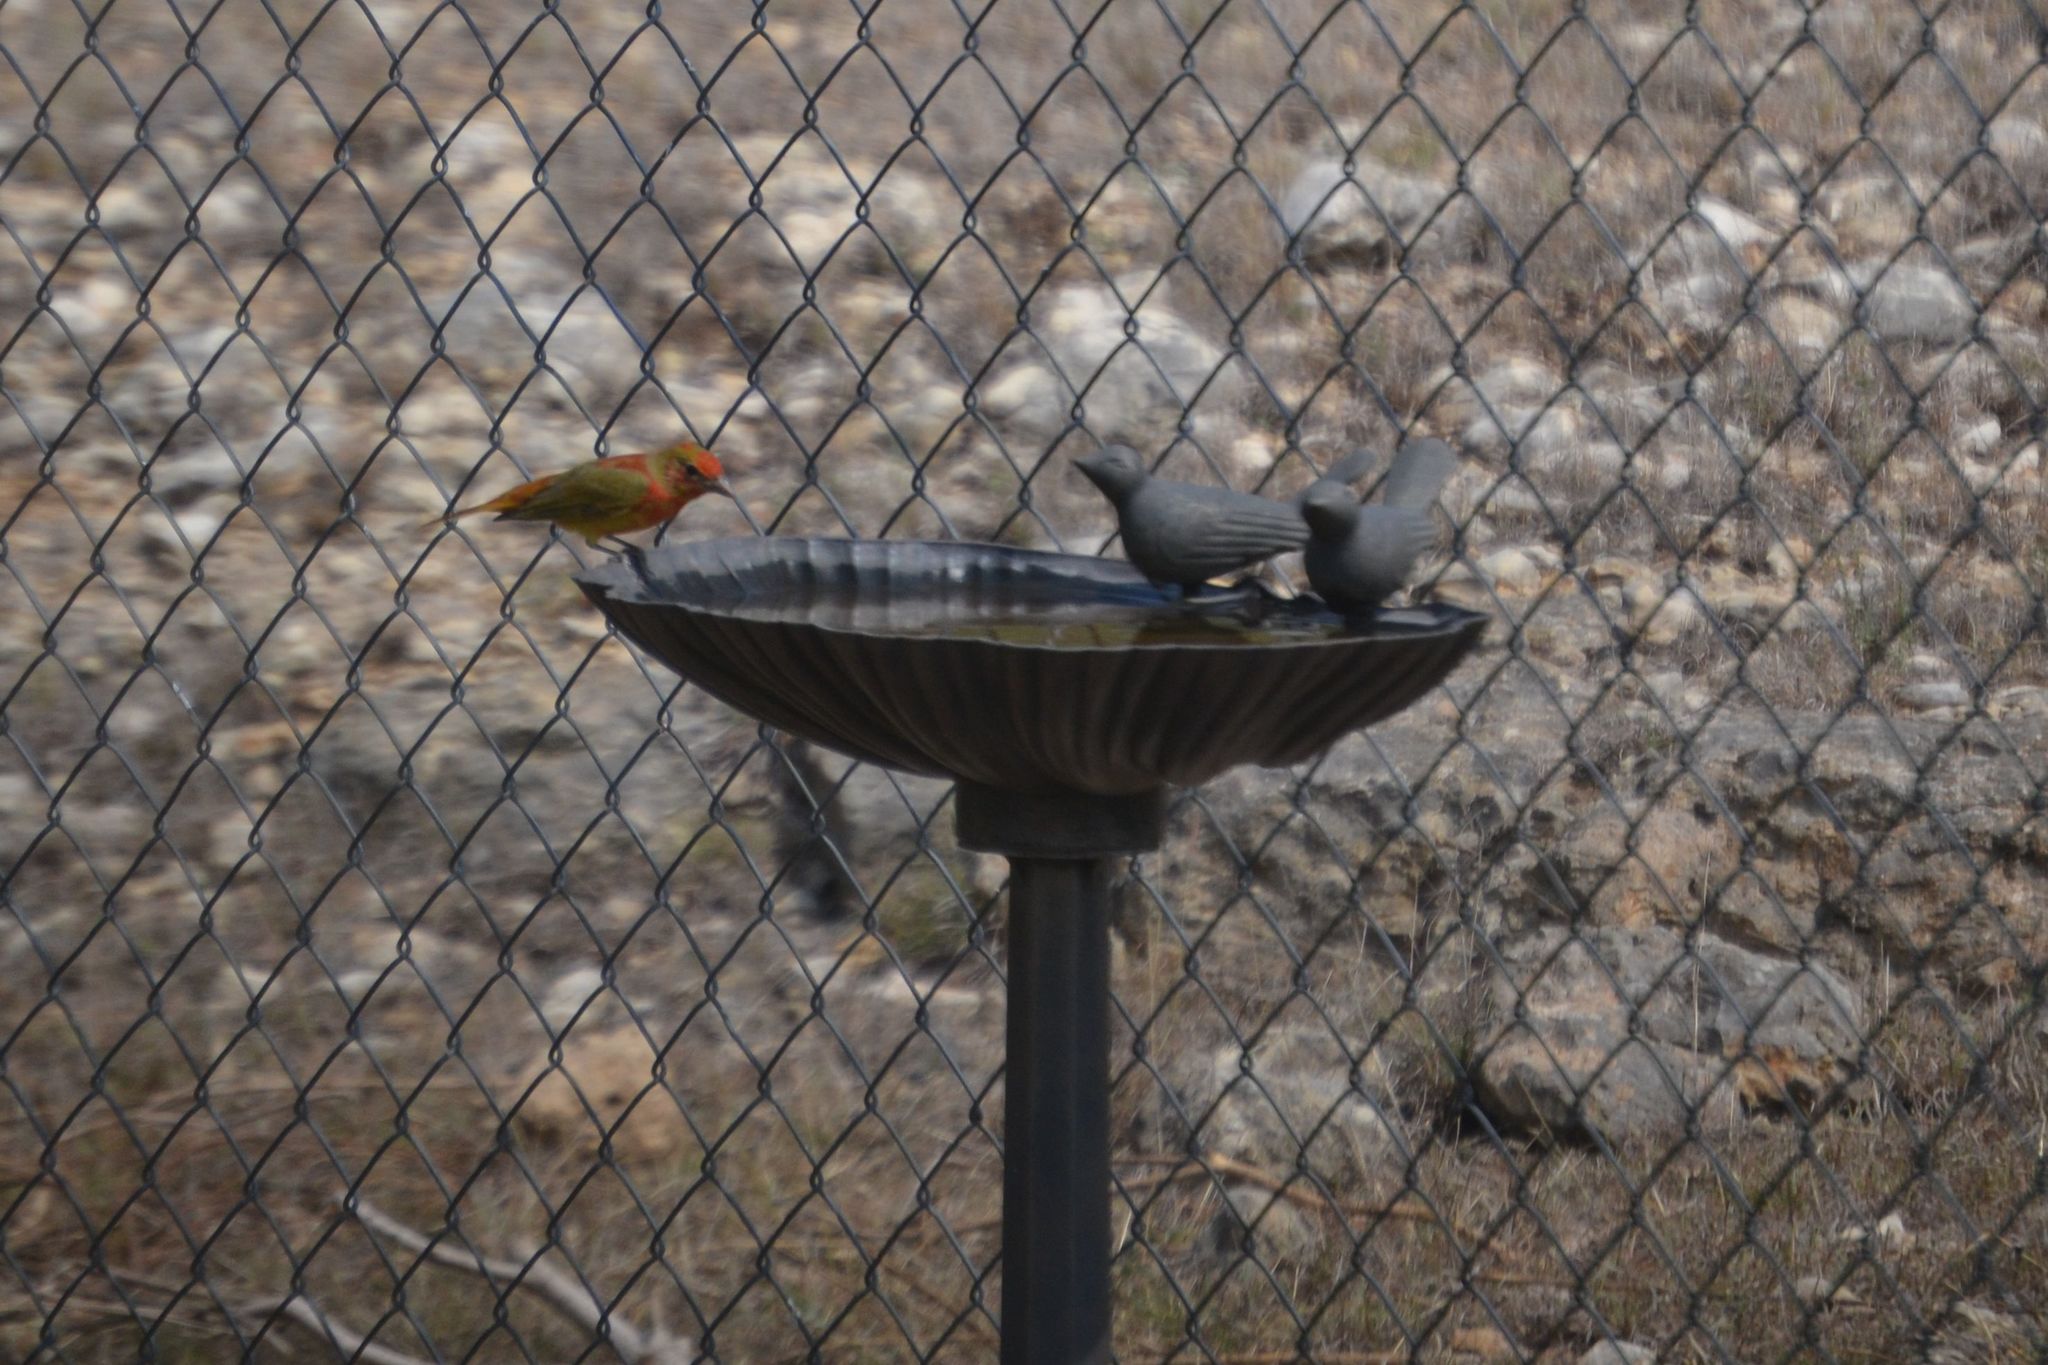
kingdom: Animalia
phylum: Chordata
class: Aves
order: Passeriformes
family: Cardinalidae
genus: Piranga
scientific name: Piranga rubra
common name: Summer tanager
